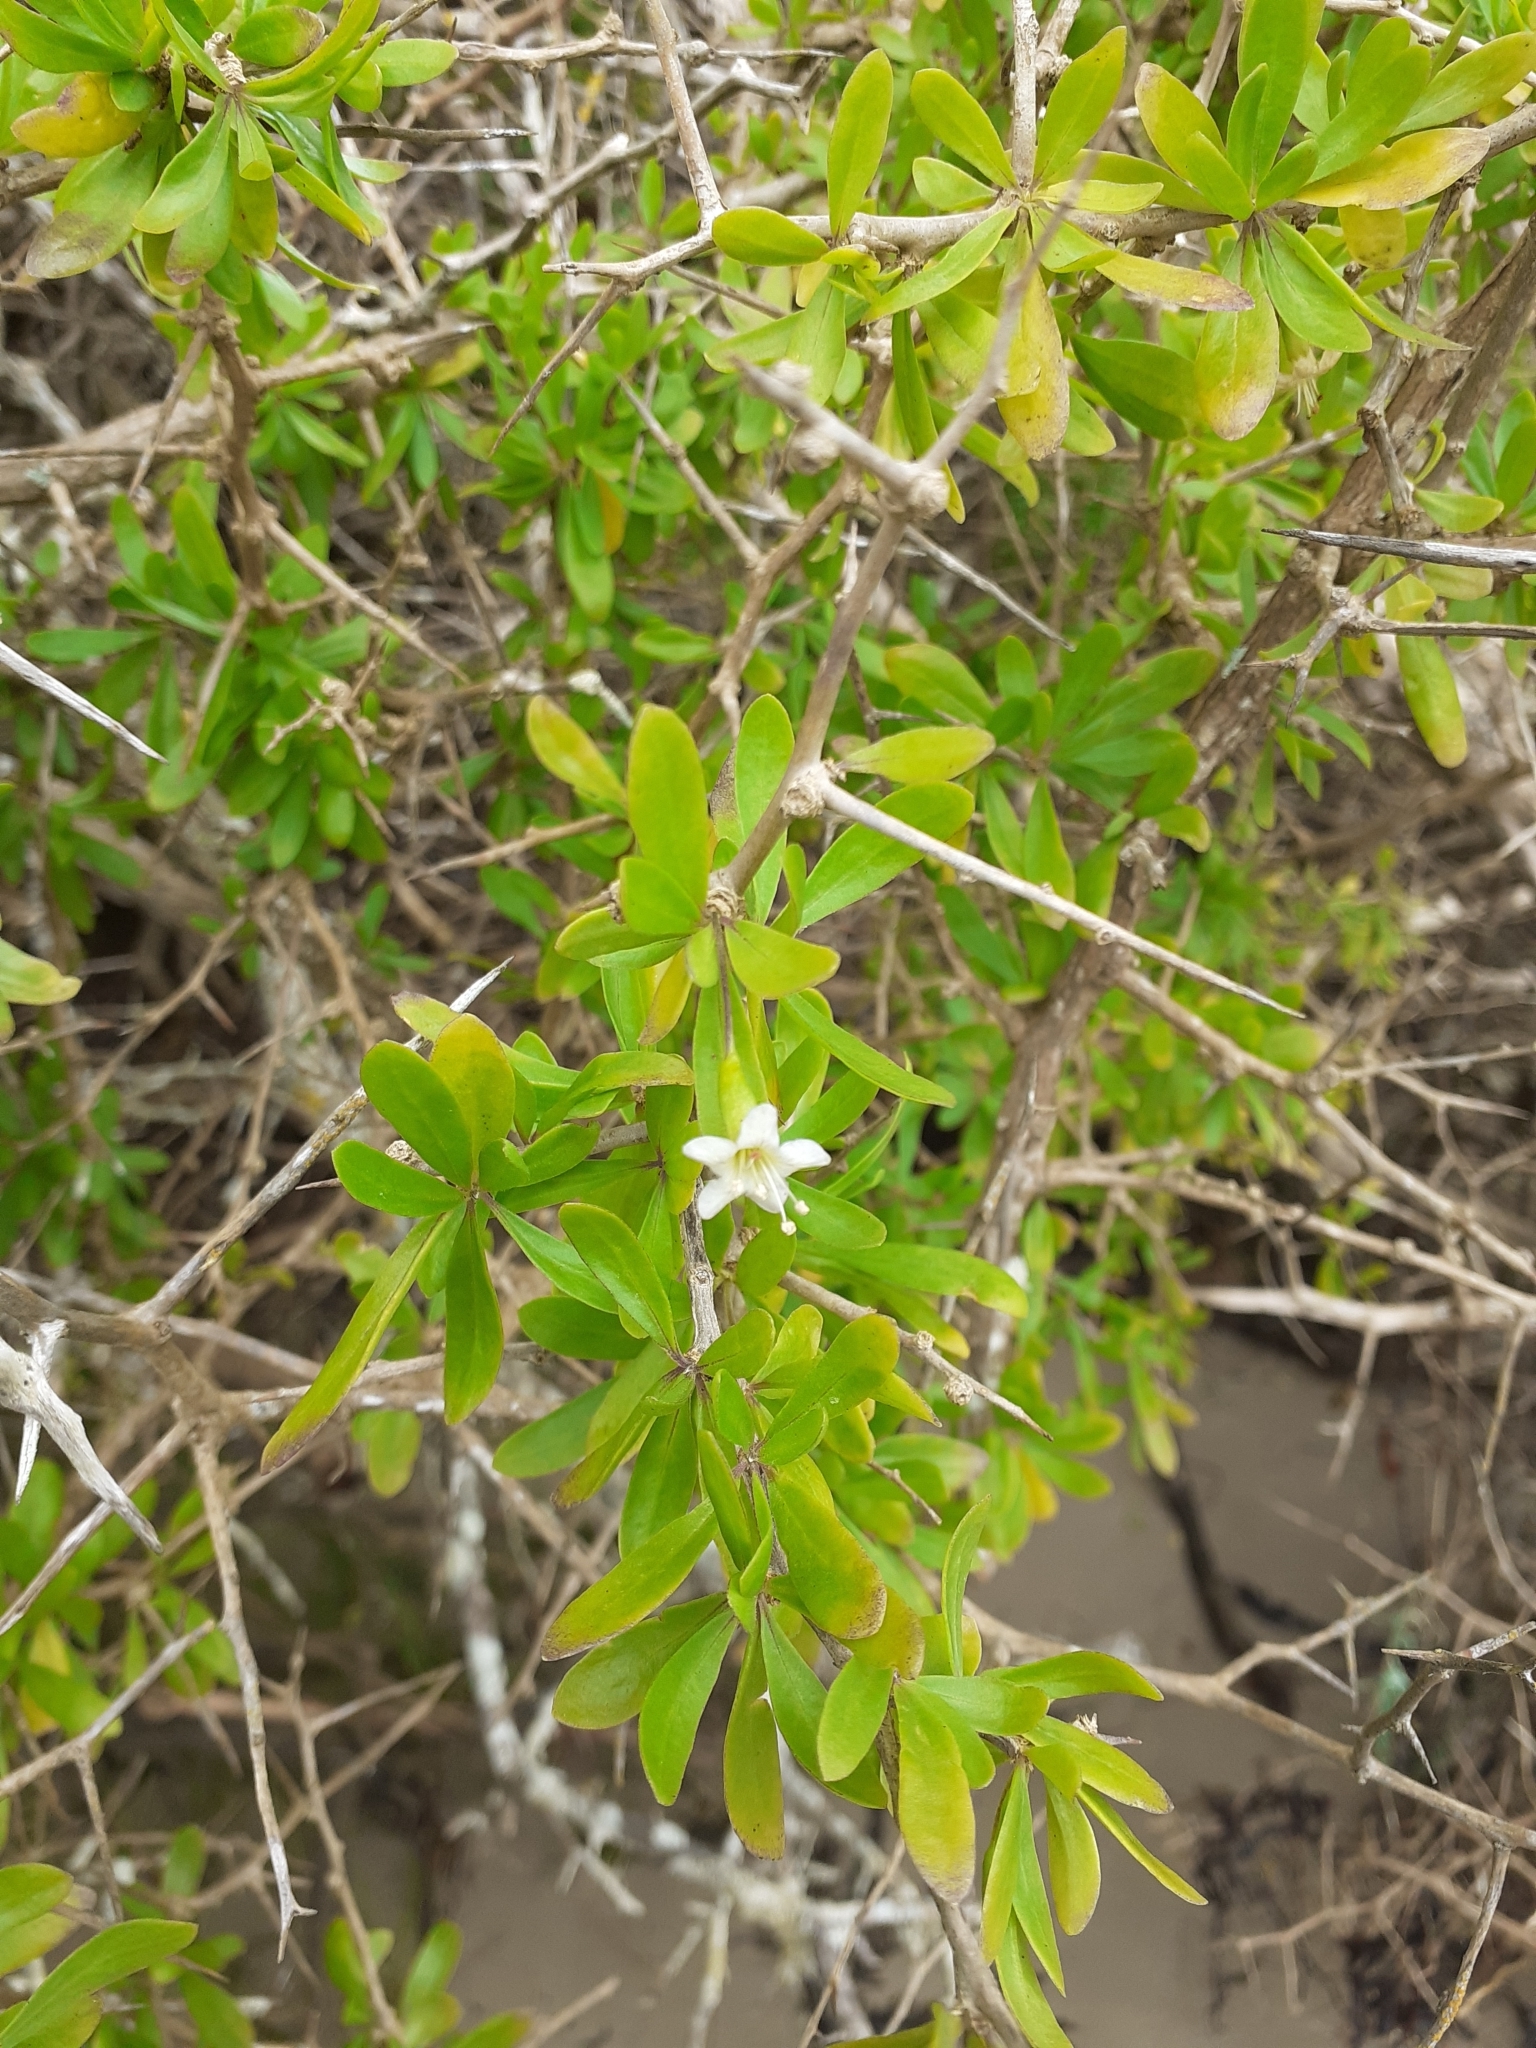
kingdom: Plantae
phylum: Tracheophyta
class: Magnoliopsida
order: Solanales
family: Solanaceae
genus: Lycium
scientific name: Lycium ferocissimum
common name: African boxthorn
